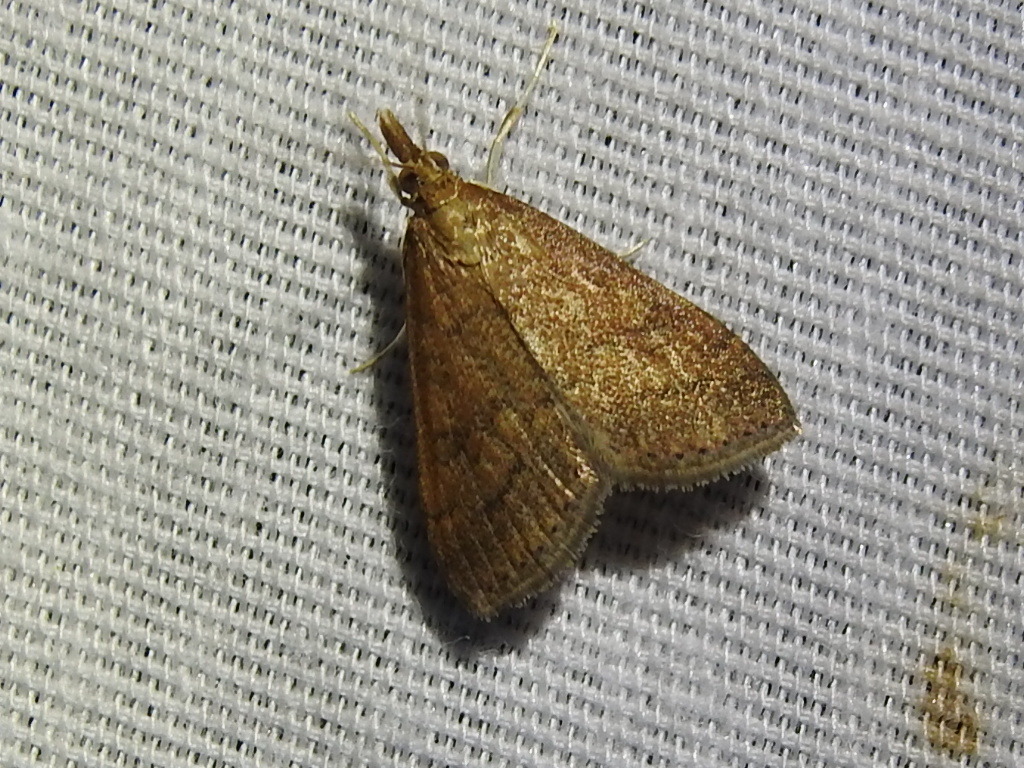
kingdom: Animalia
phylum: Arthropoda
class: Insecta
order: Lepidoptera
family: Crambidae
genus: Udea
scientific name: Udea rubigalis
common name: Celery leaftier moth
